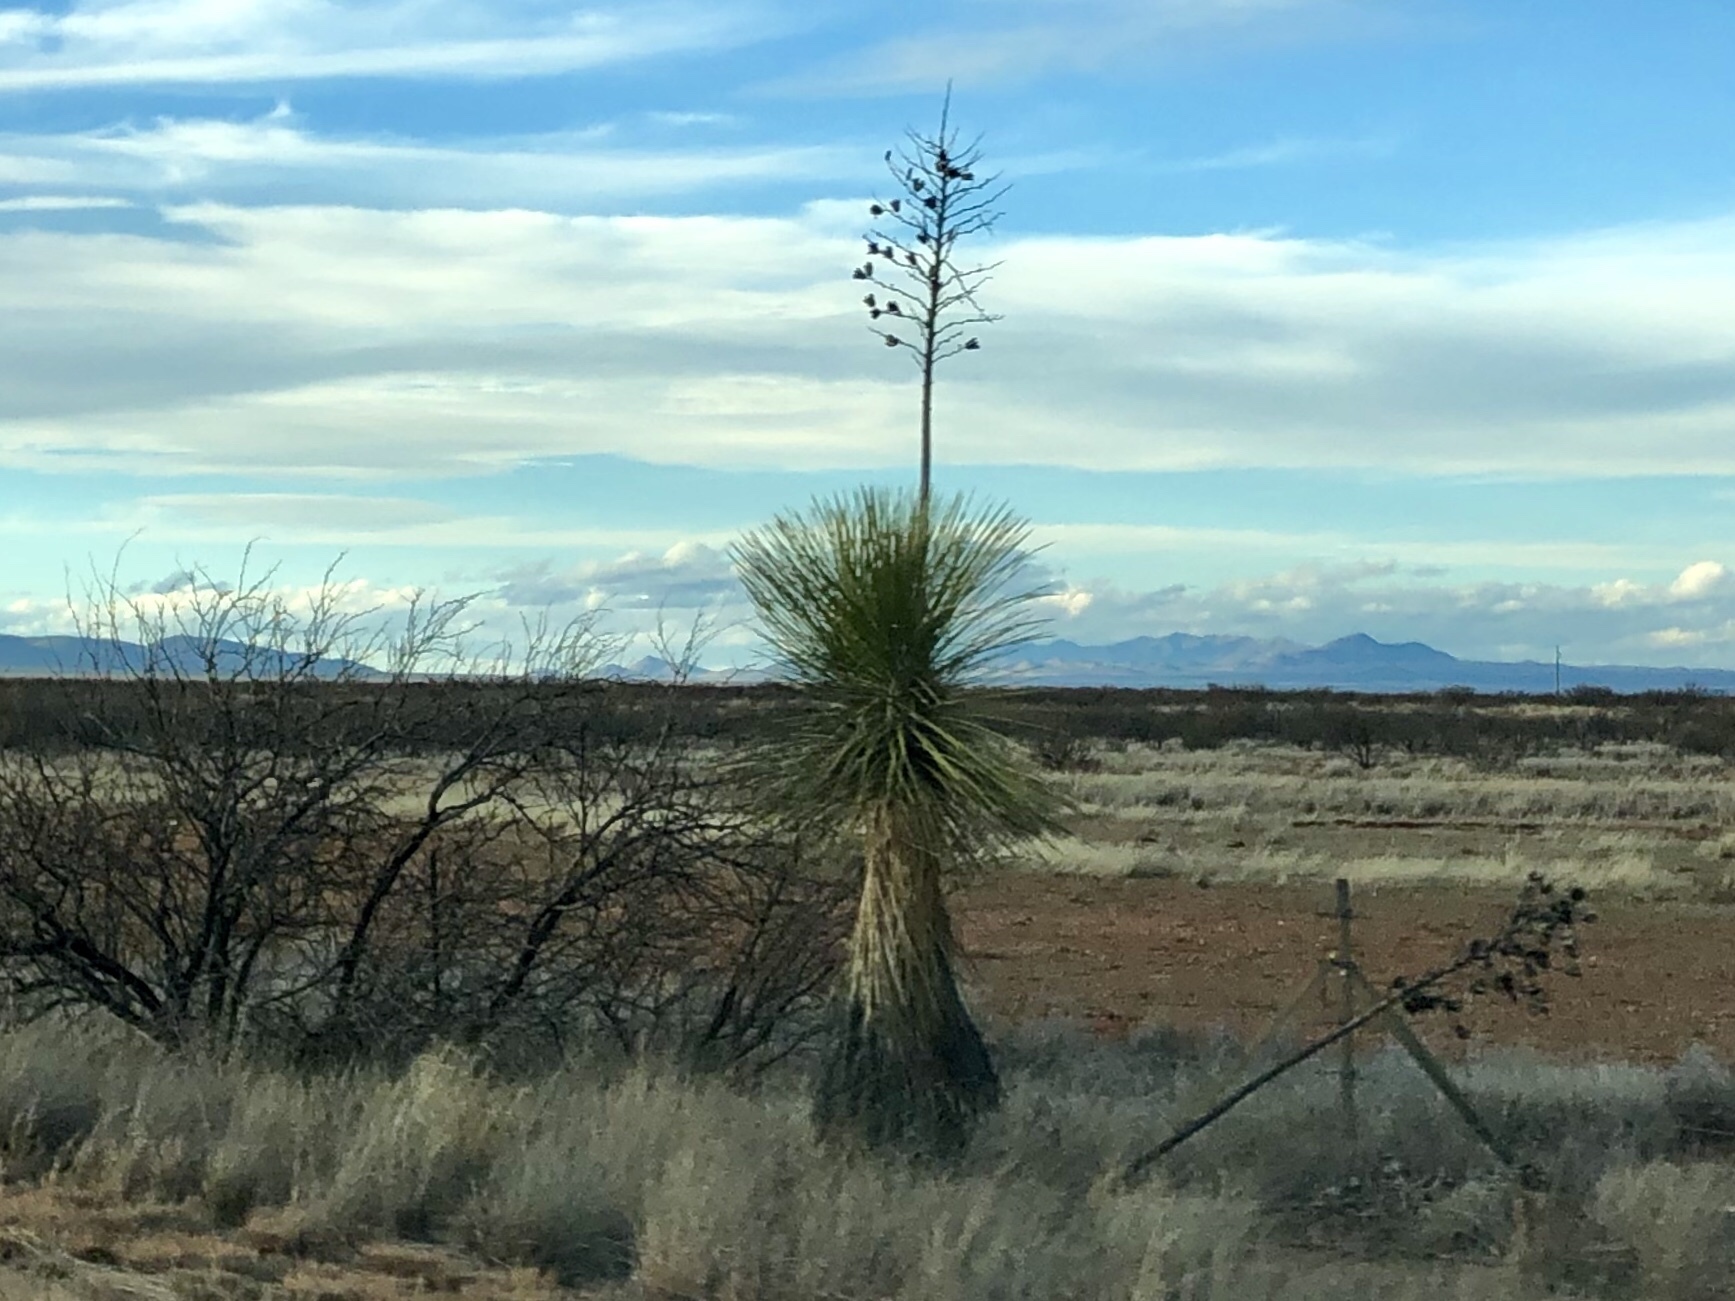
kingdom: Plantae
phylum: Tracheophyta
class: Liliopsida
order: Asparagales
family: Asparagaceae
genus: Yucca
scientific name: Yucca elata
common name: Palmella
